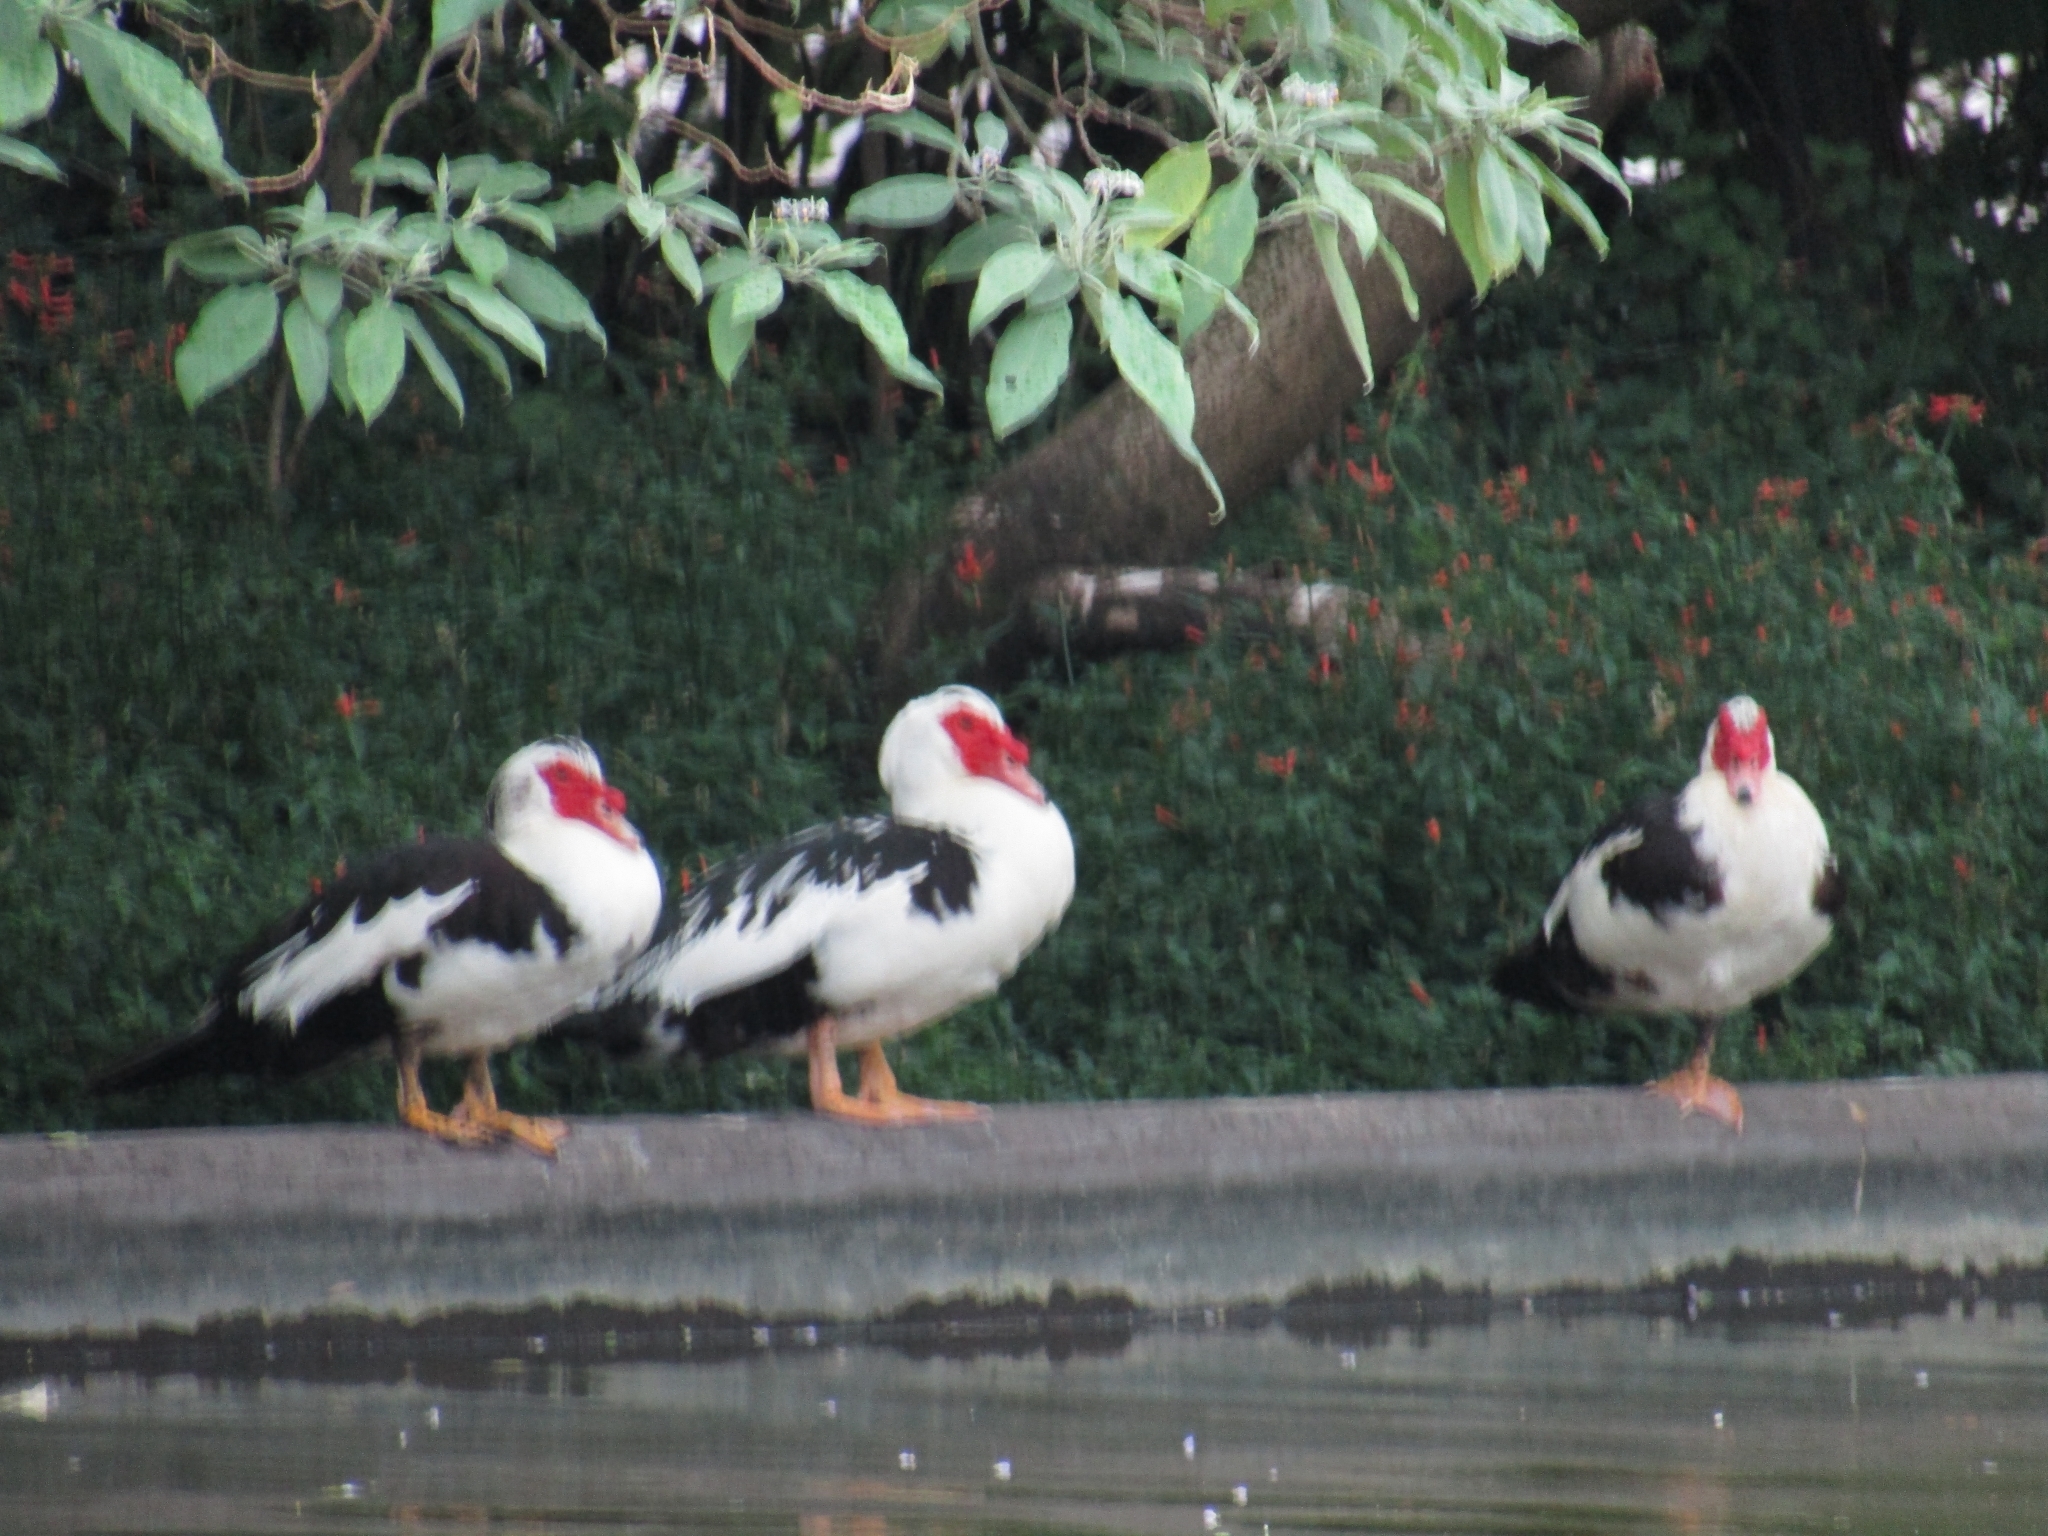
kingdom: Animalia
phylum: Chordata
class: Aves
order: Anseriformes
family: Anatidae
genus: Cairina
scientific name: Cairina moschata
